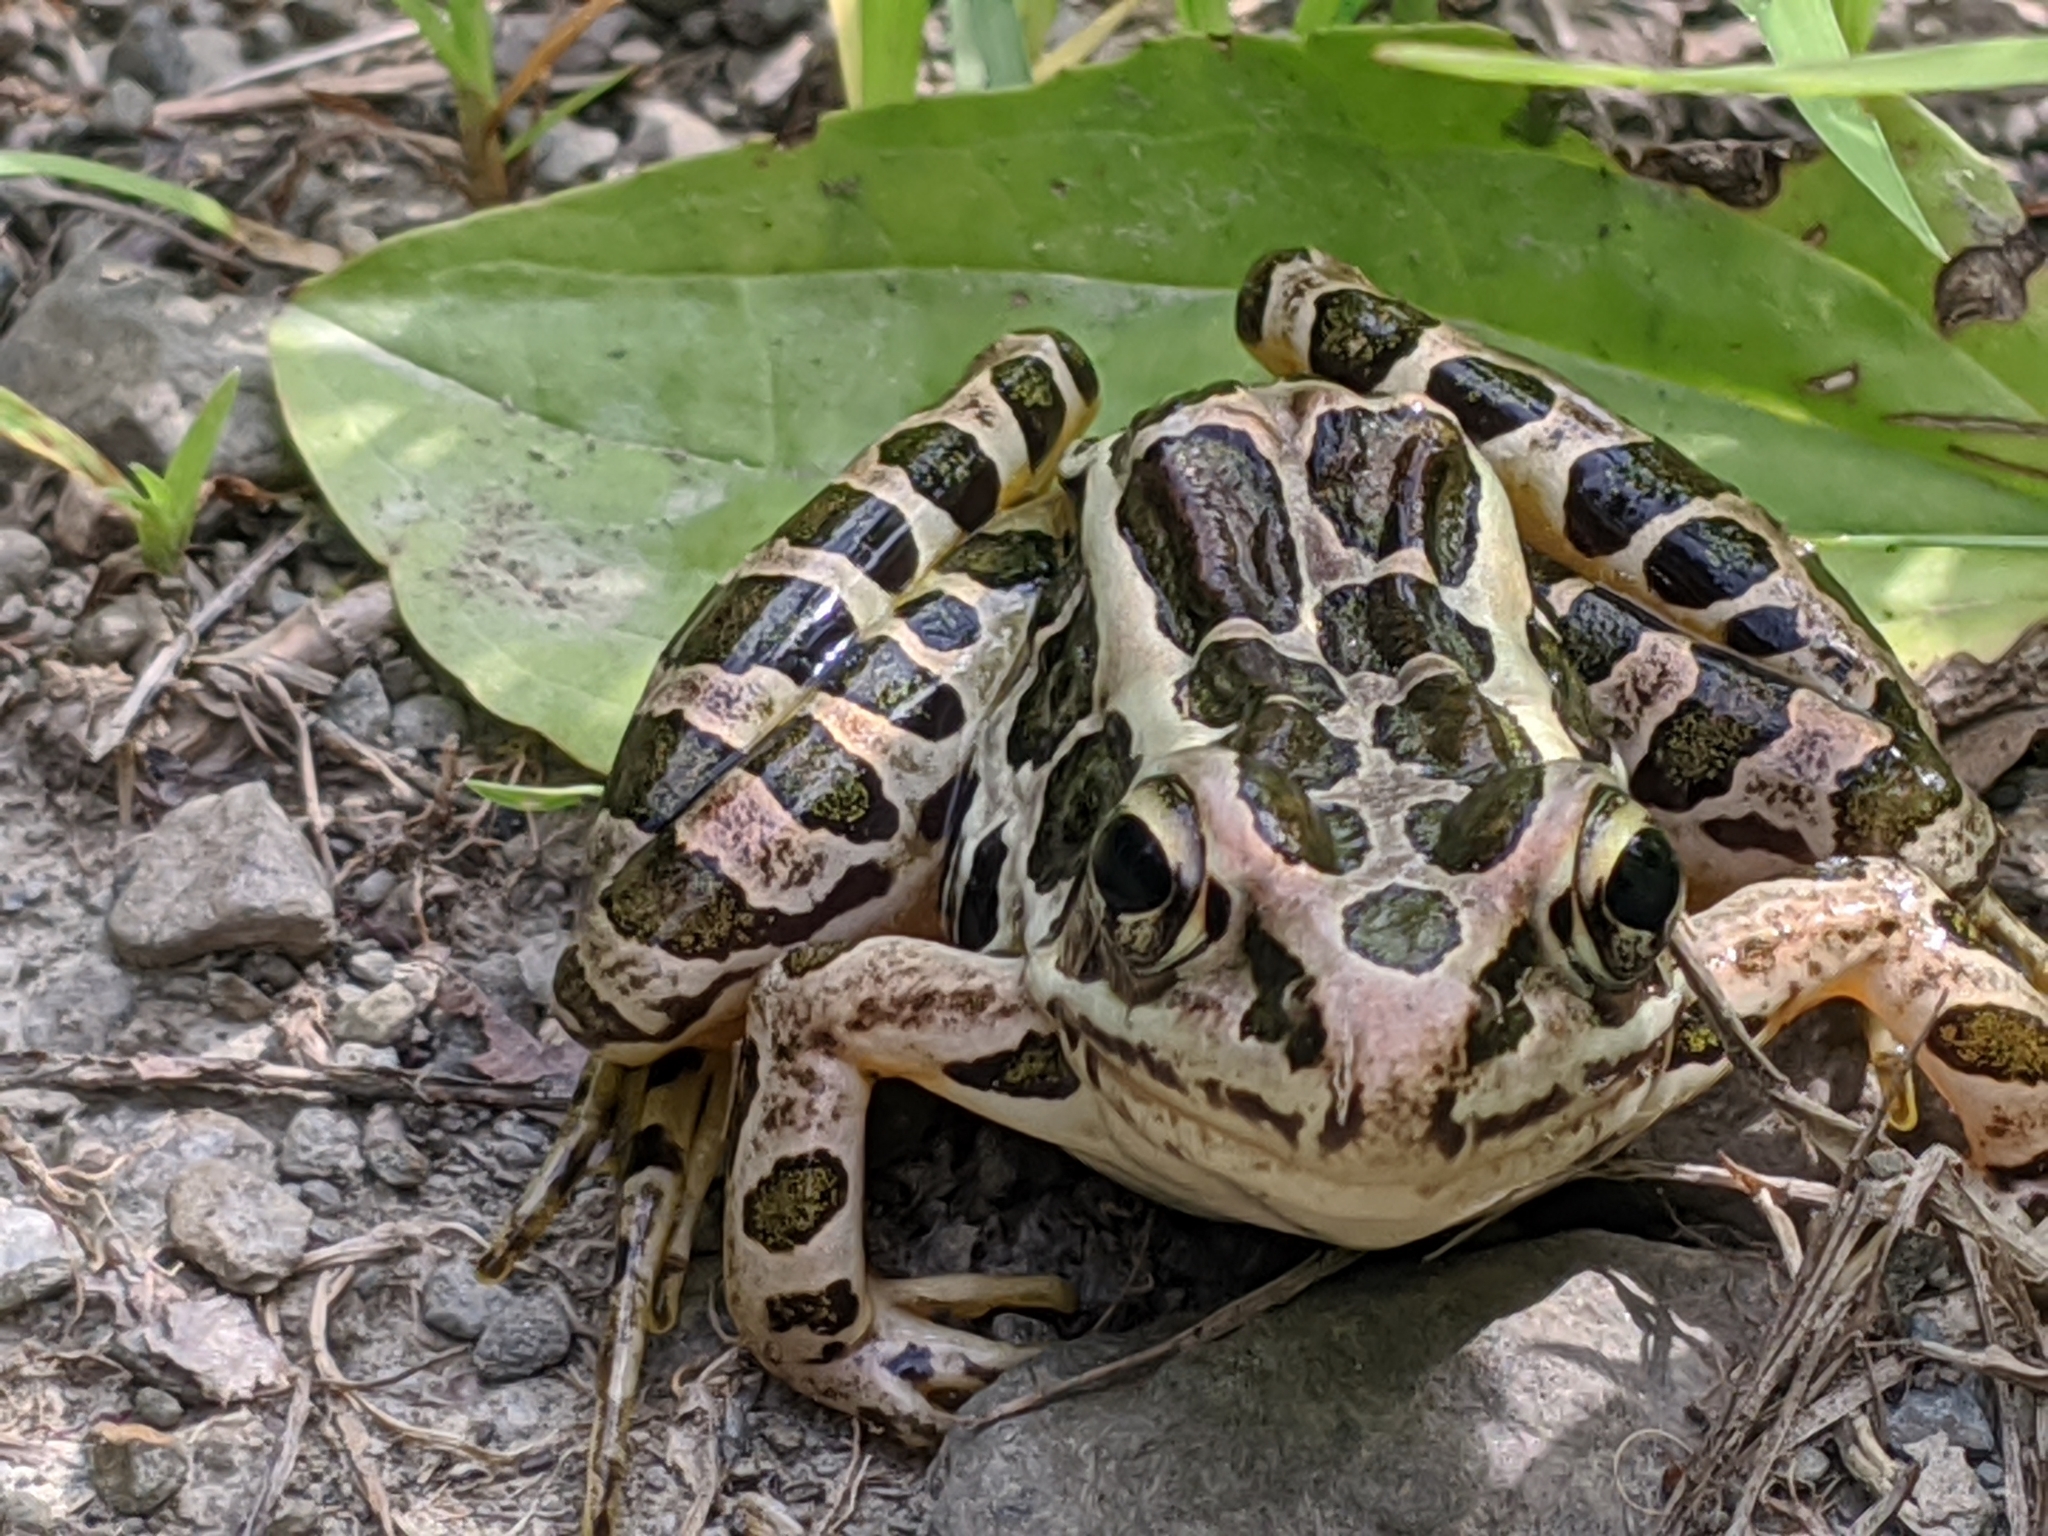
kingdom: Animalia
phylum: Chordata
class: Amphibia
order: Anura
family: Ranidae
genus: Lithobates
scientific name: Lithobates palustris
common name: Pickerel frog
